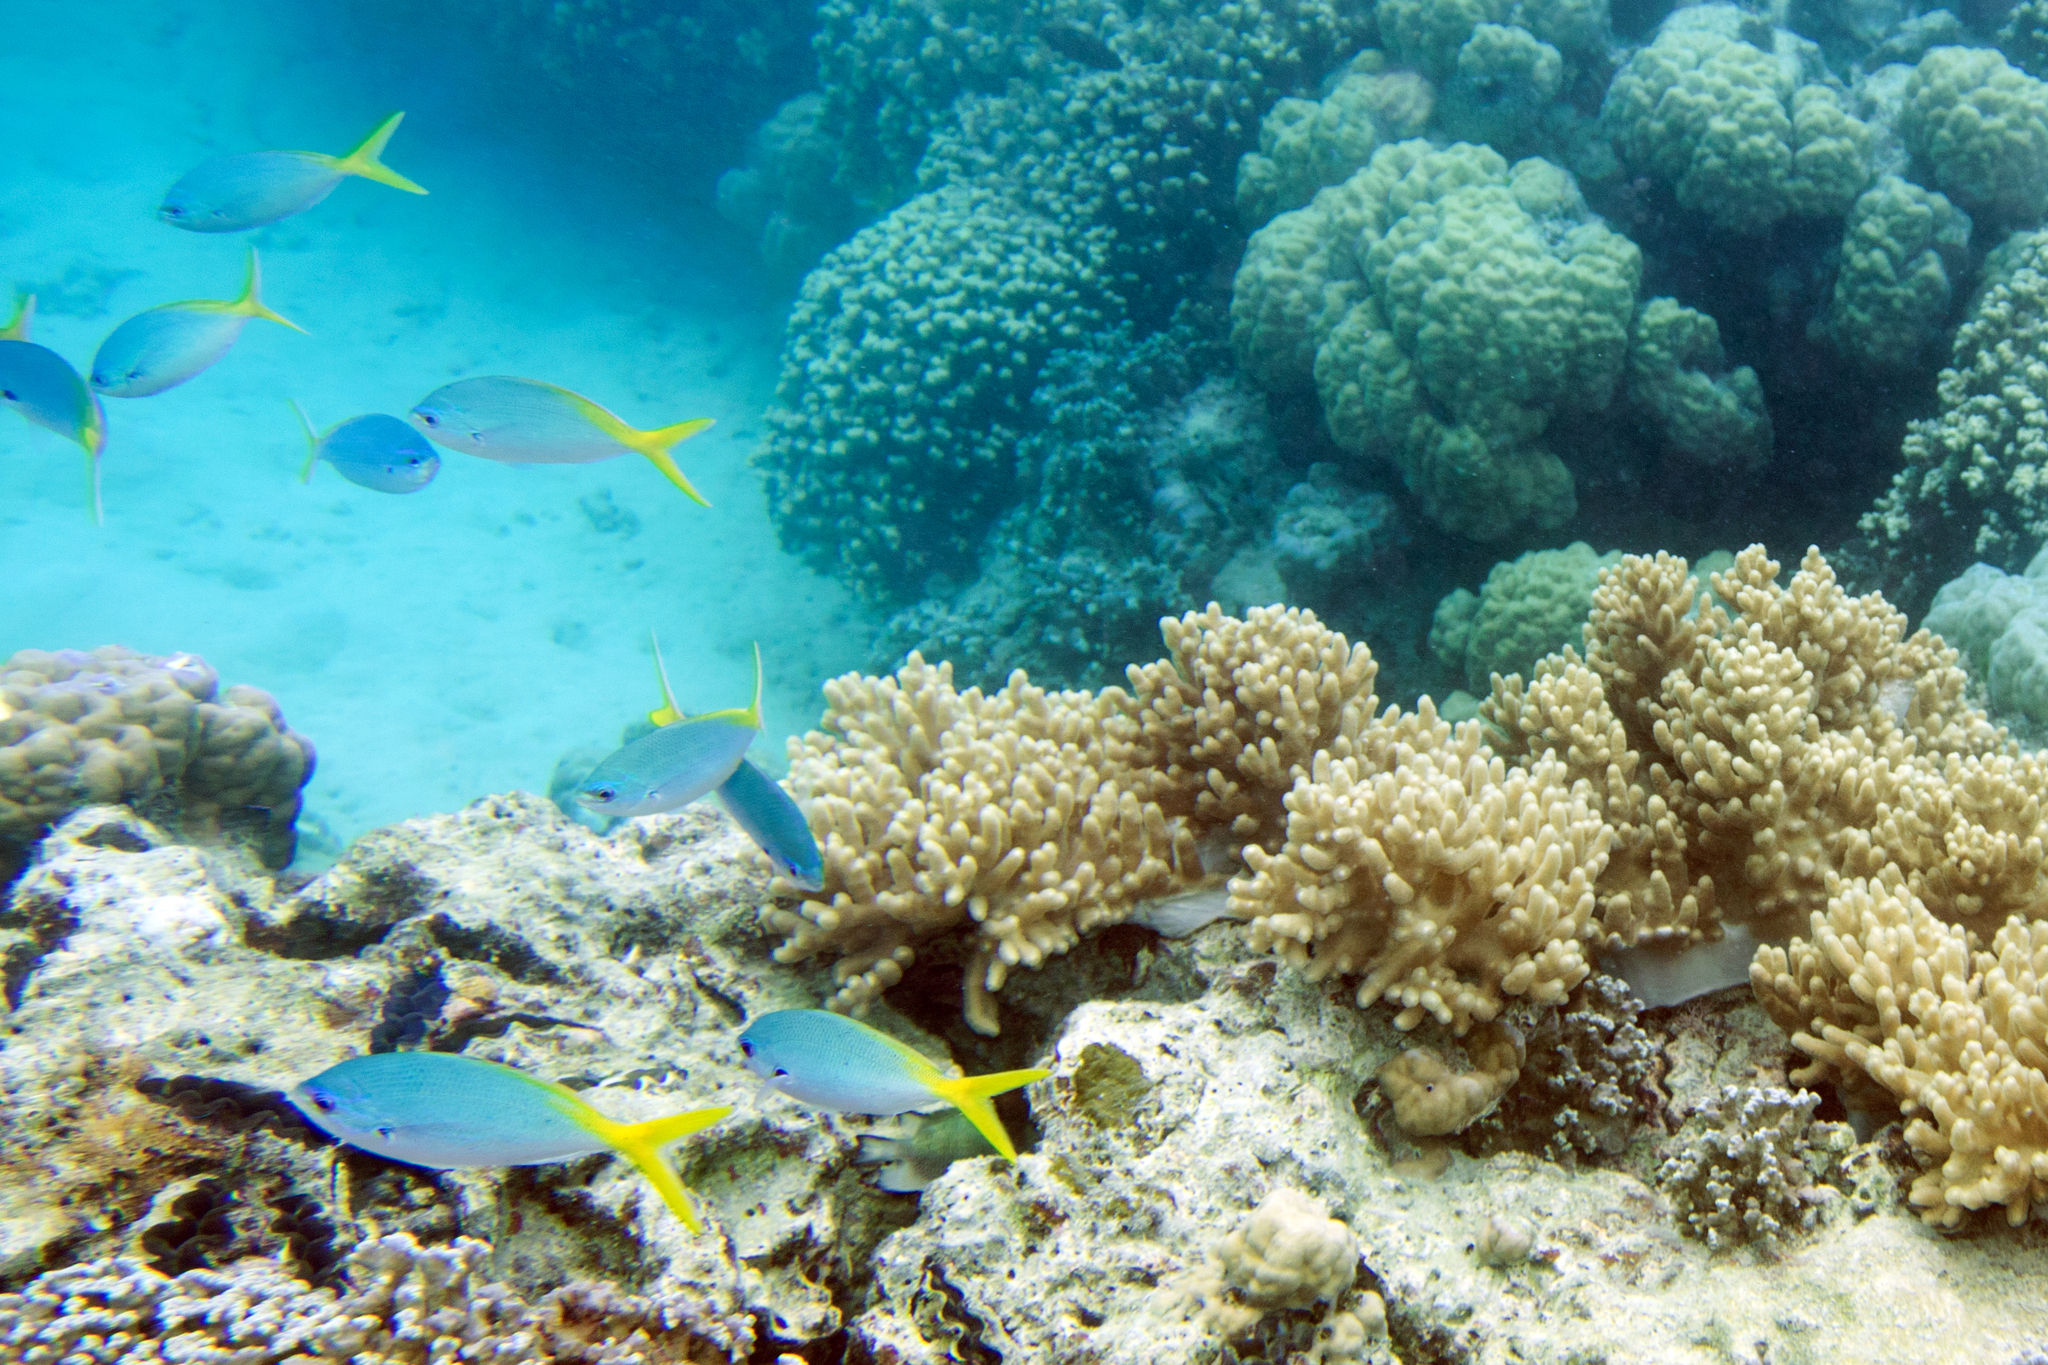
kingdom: Animalia
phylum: Chordata
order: Perciformes
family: Caesionidae
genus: Caesio
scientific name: Caesio cuning
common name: Red-bellied fusilier
